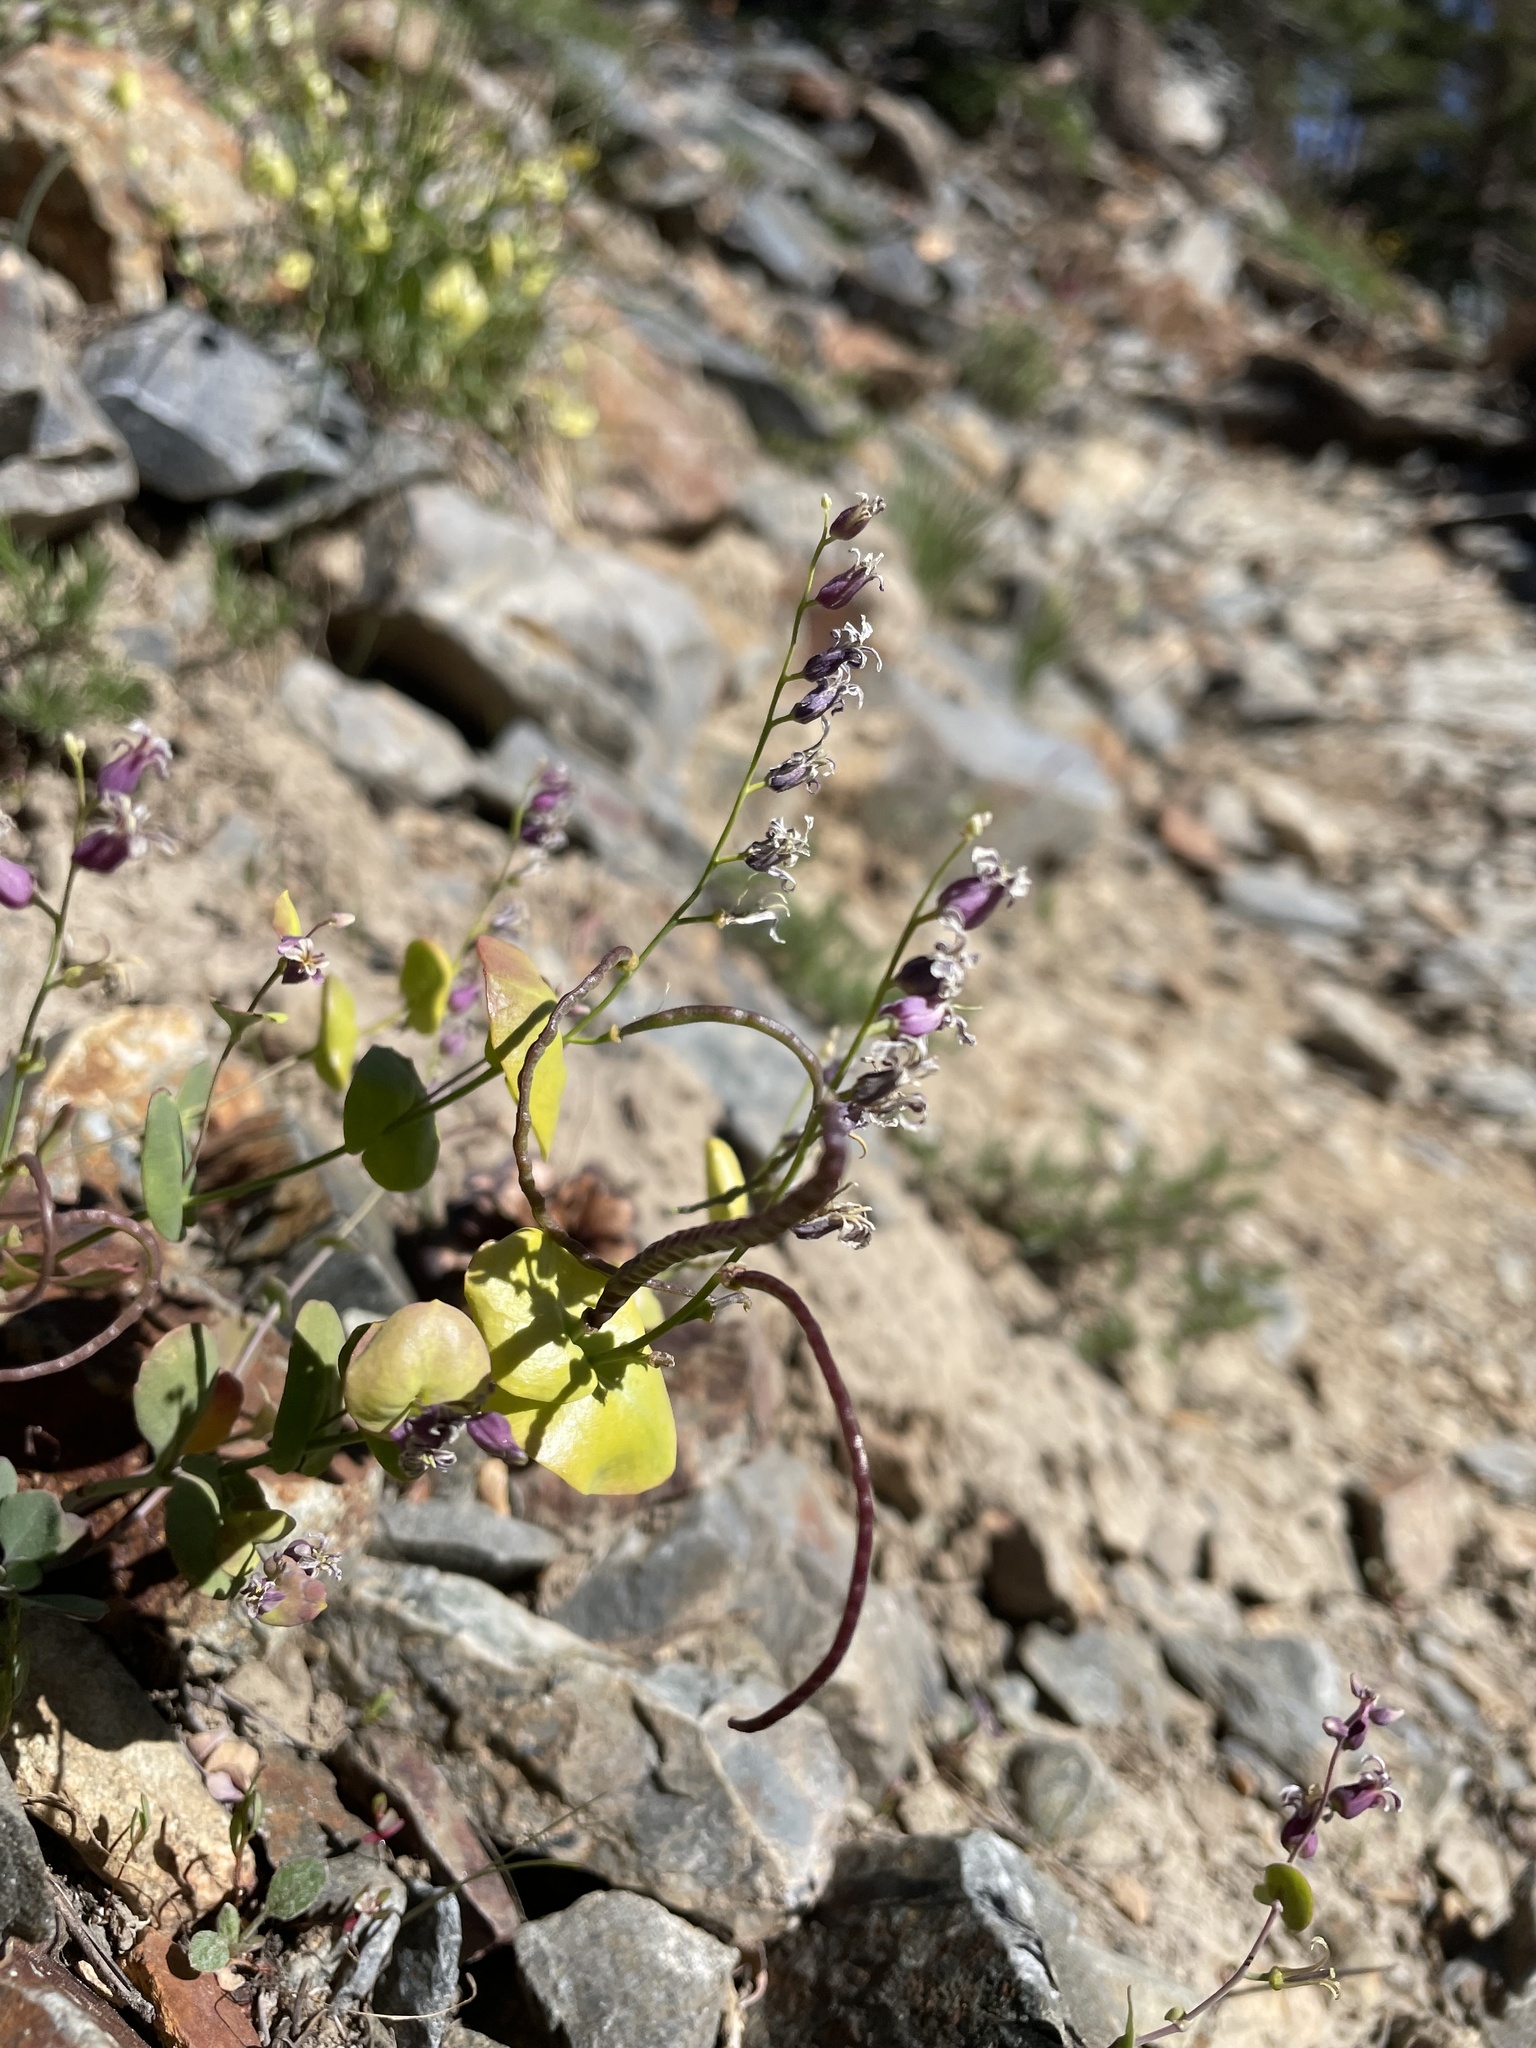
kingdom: Plantae
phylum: Tracheophyta
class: Magnoliopsida
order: Brassicales
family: Brassicaceae
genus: Streptanthus
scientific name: Streptanthus tortuosus
